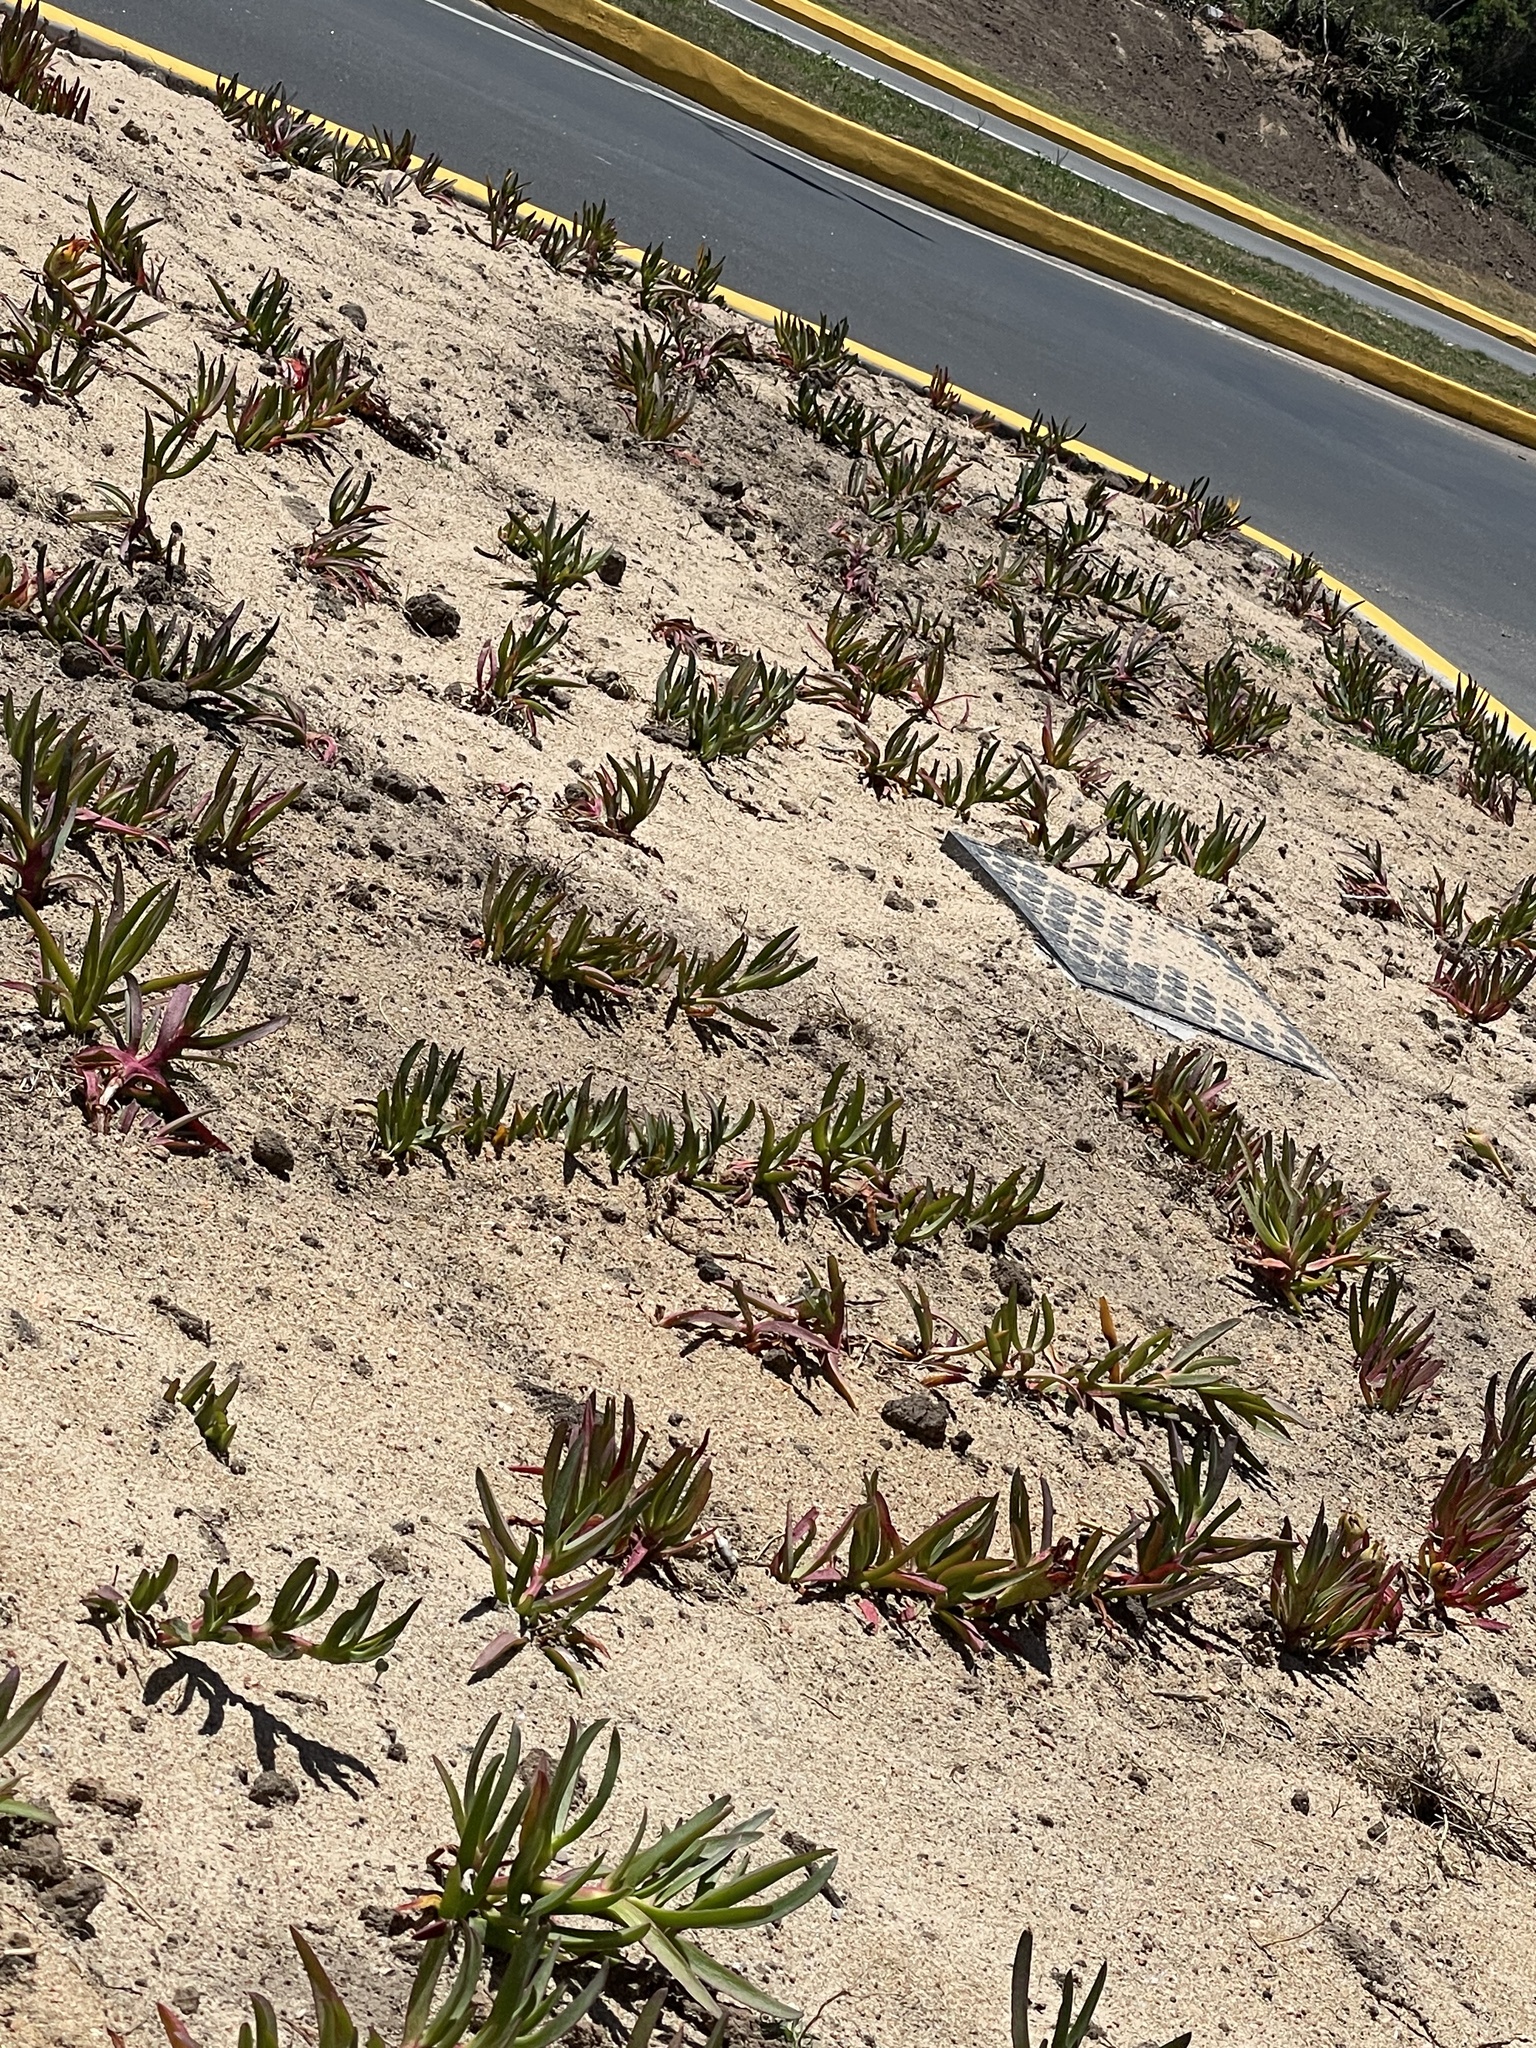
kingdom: Plantae
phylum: Tracheophyta
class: Magnoliopsida
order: Caryophyllales
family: Aizoaceae
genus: Carpobrotus
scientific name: Carpobrotus edulis
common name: Hottentot-fig
